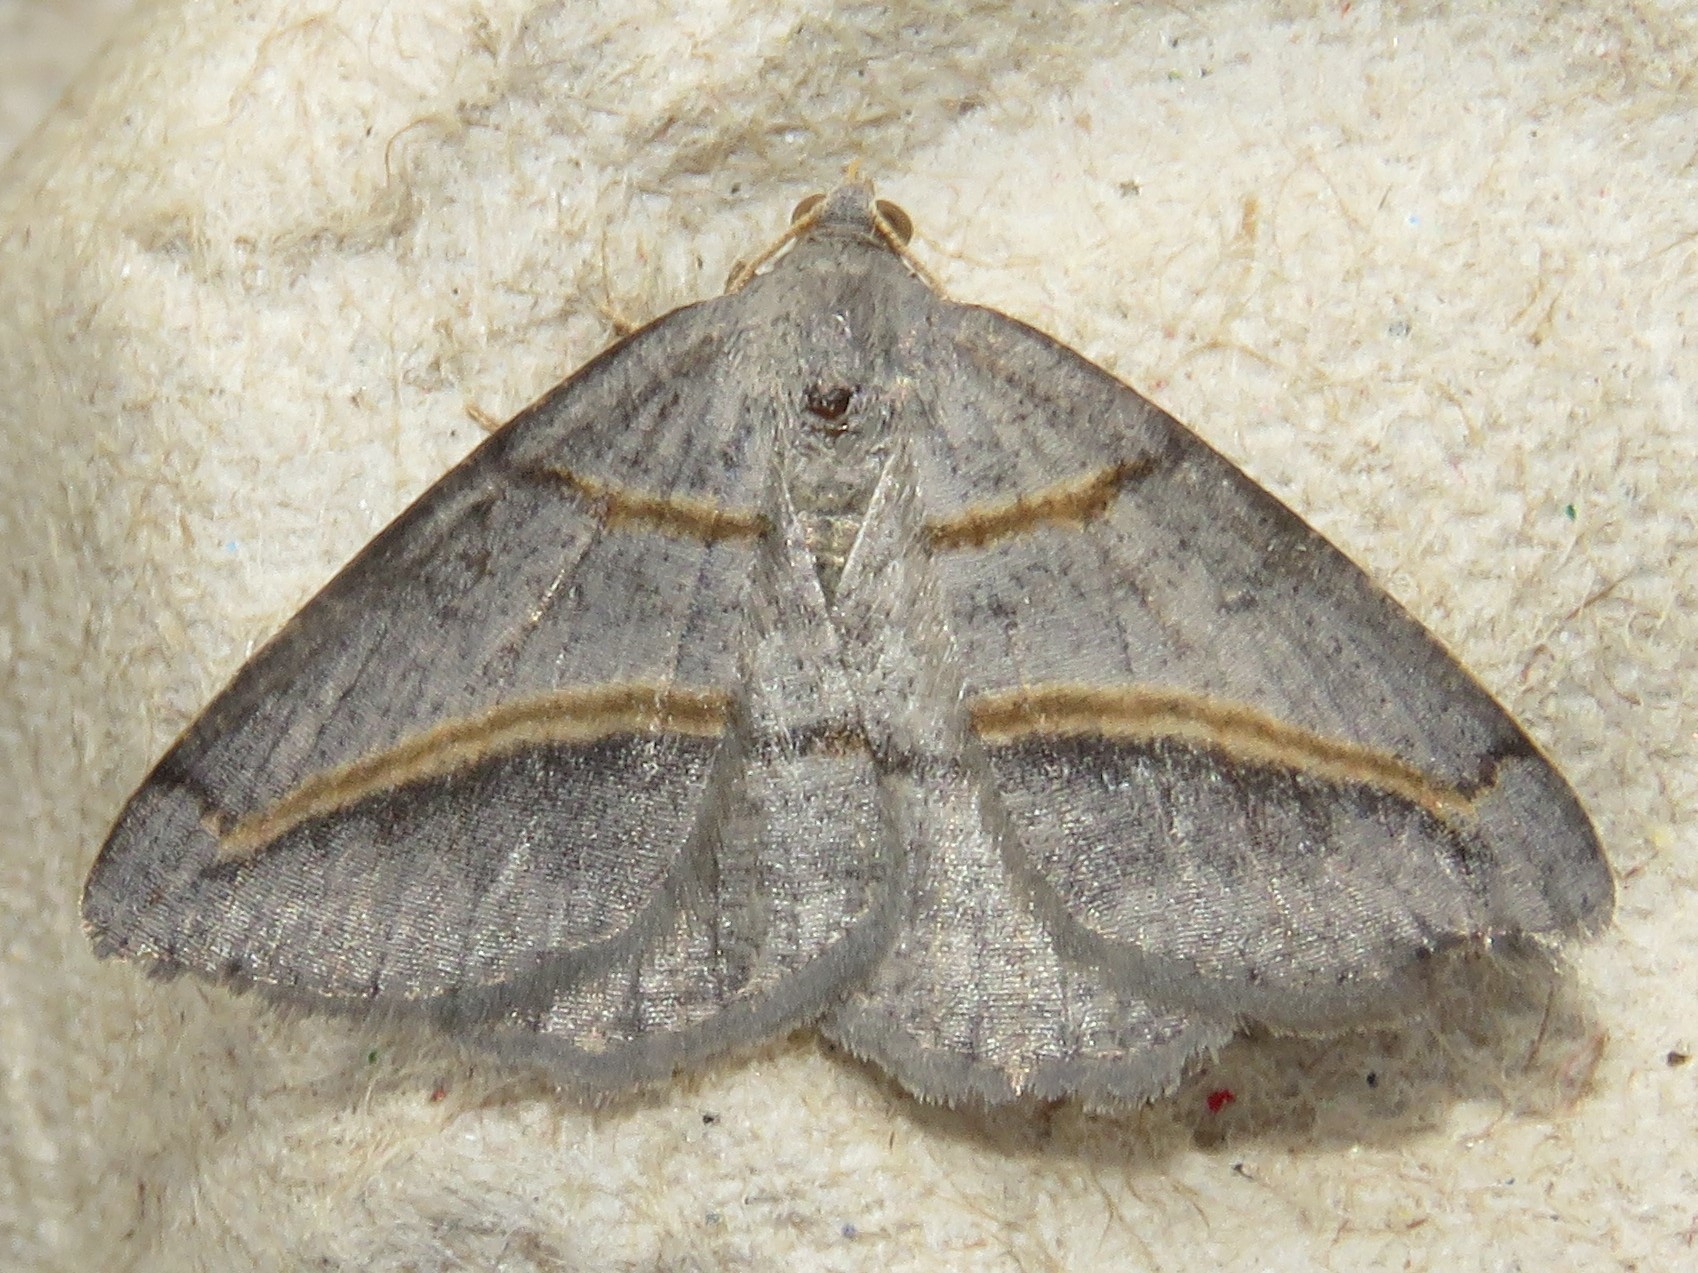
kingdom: Animalia
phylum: Arthropoda
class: Insecta
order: Lepidoptera
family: Geometridae
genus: Digrammia
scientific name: Digrammia mellistrigata
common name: Yellow-lined angle
